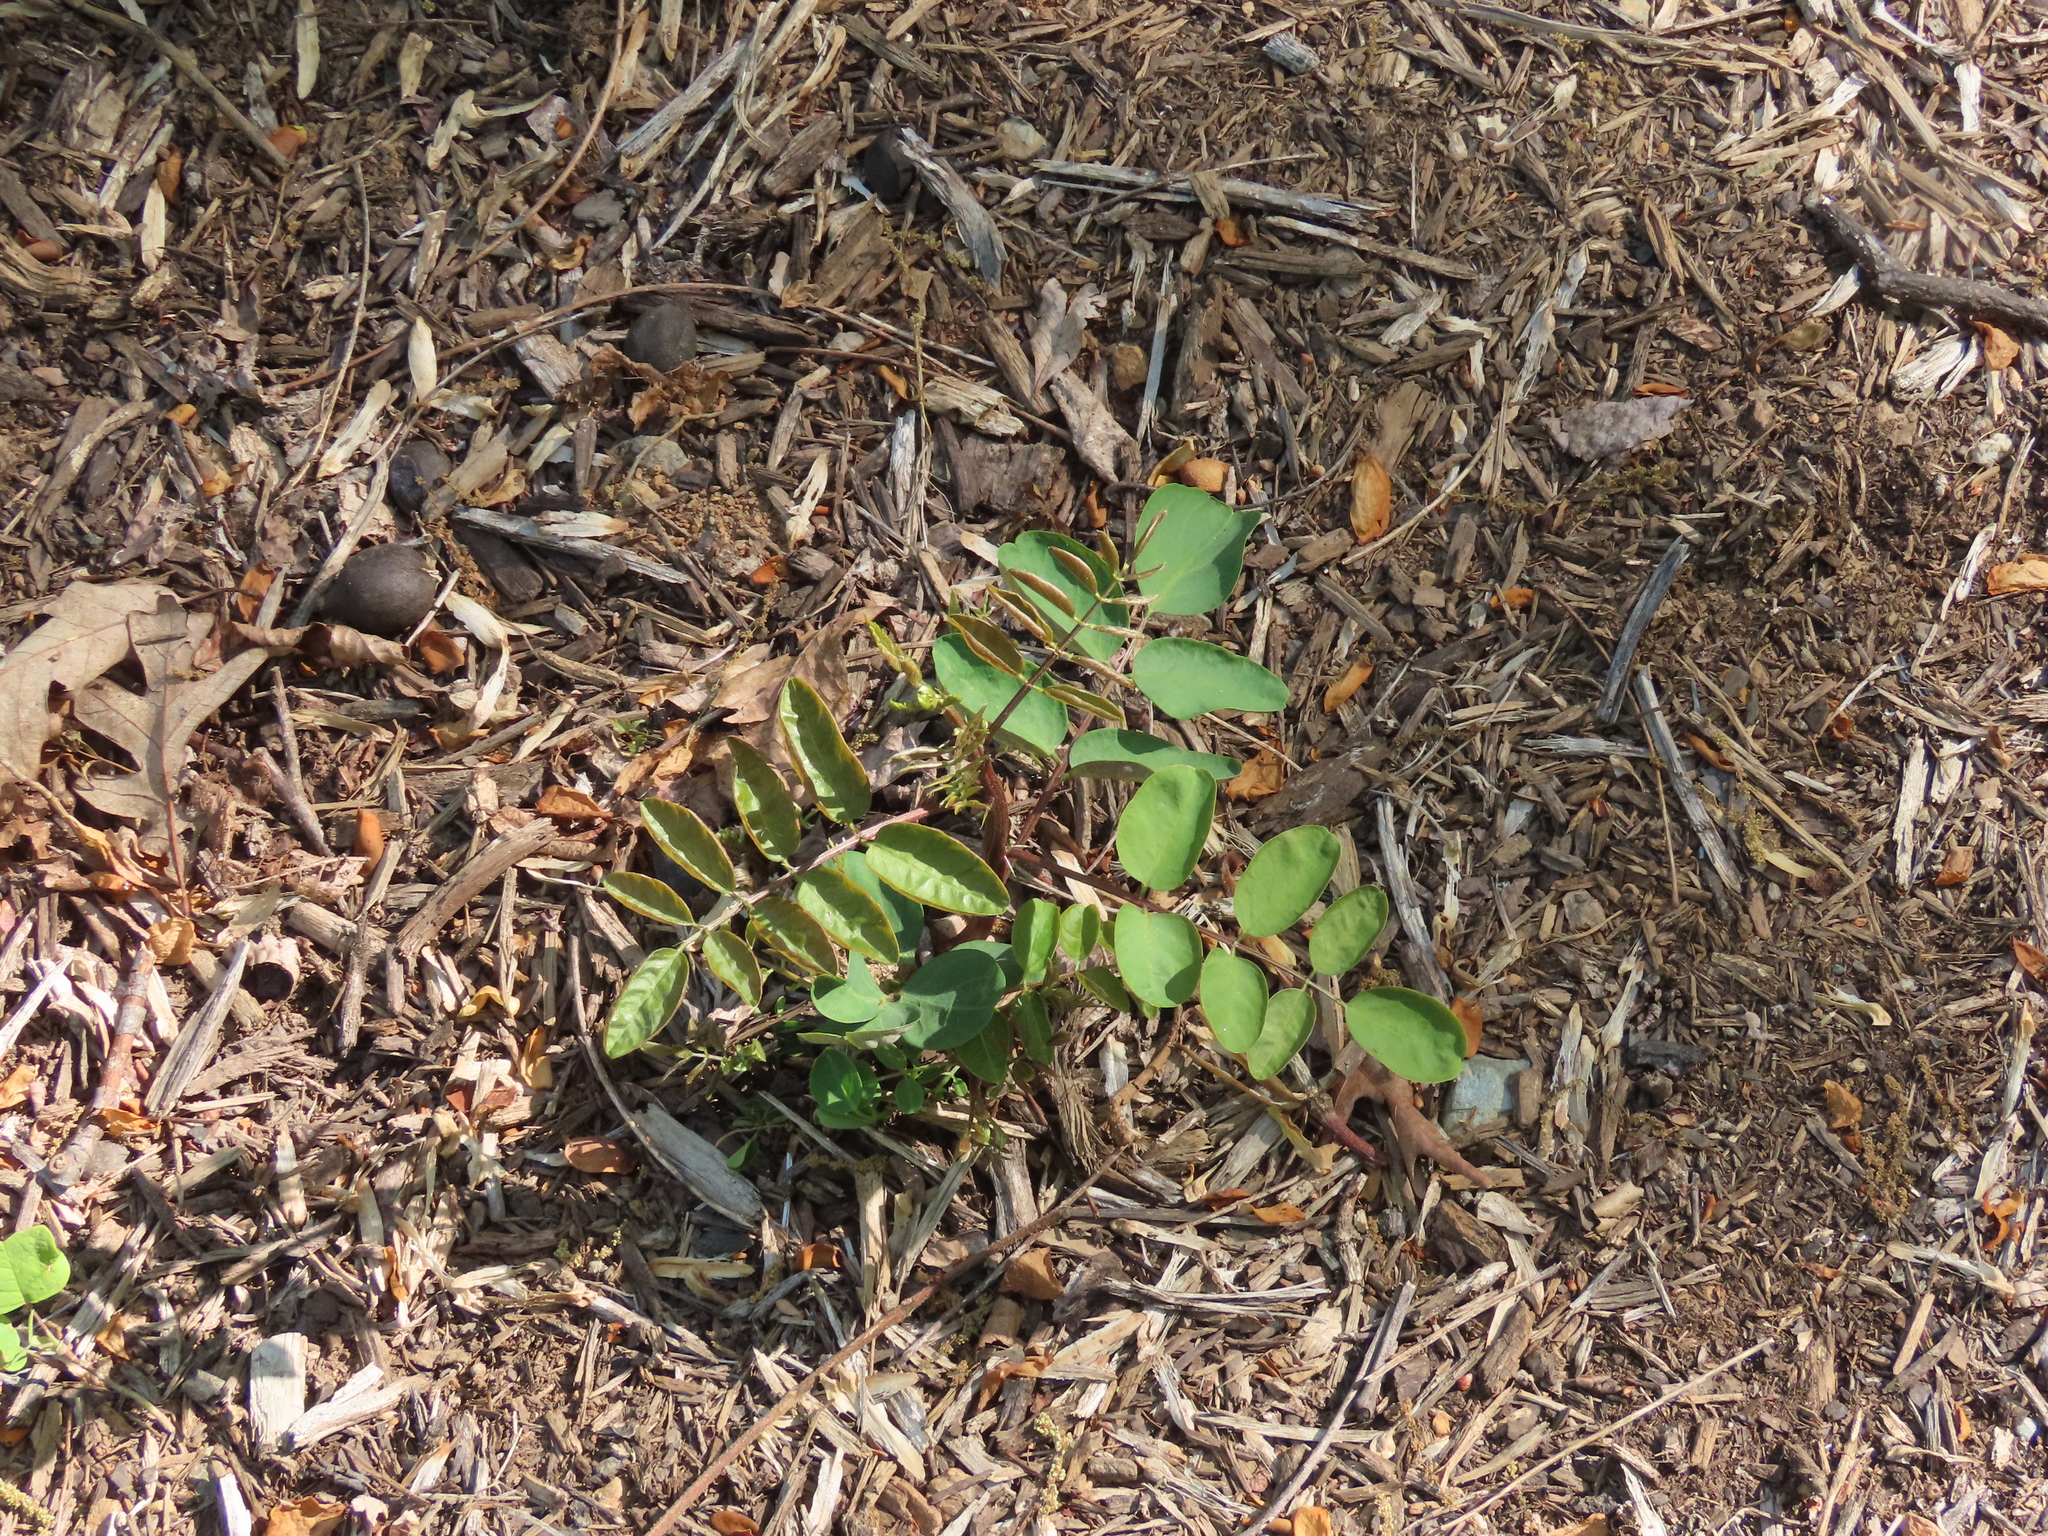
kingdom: Plantae
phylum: Tracheophyta
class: Magnoliopsida
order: Fabales
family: Fabaceae
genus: Robinia
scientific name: Robinia pseudoacacia
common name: Black locust
